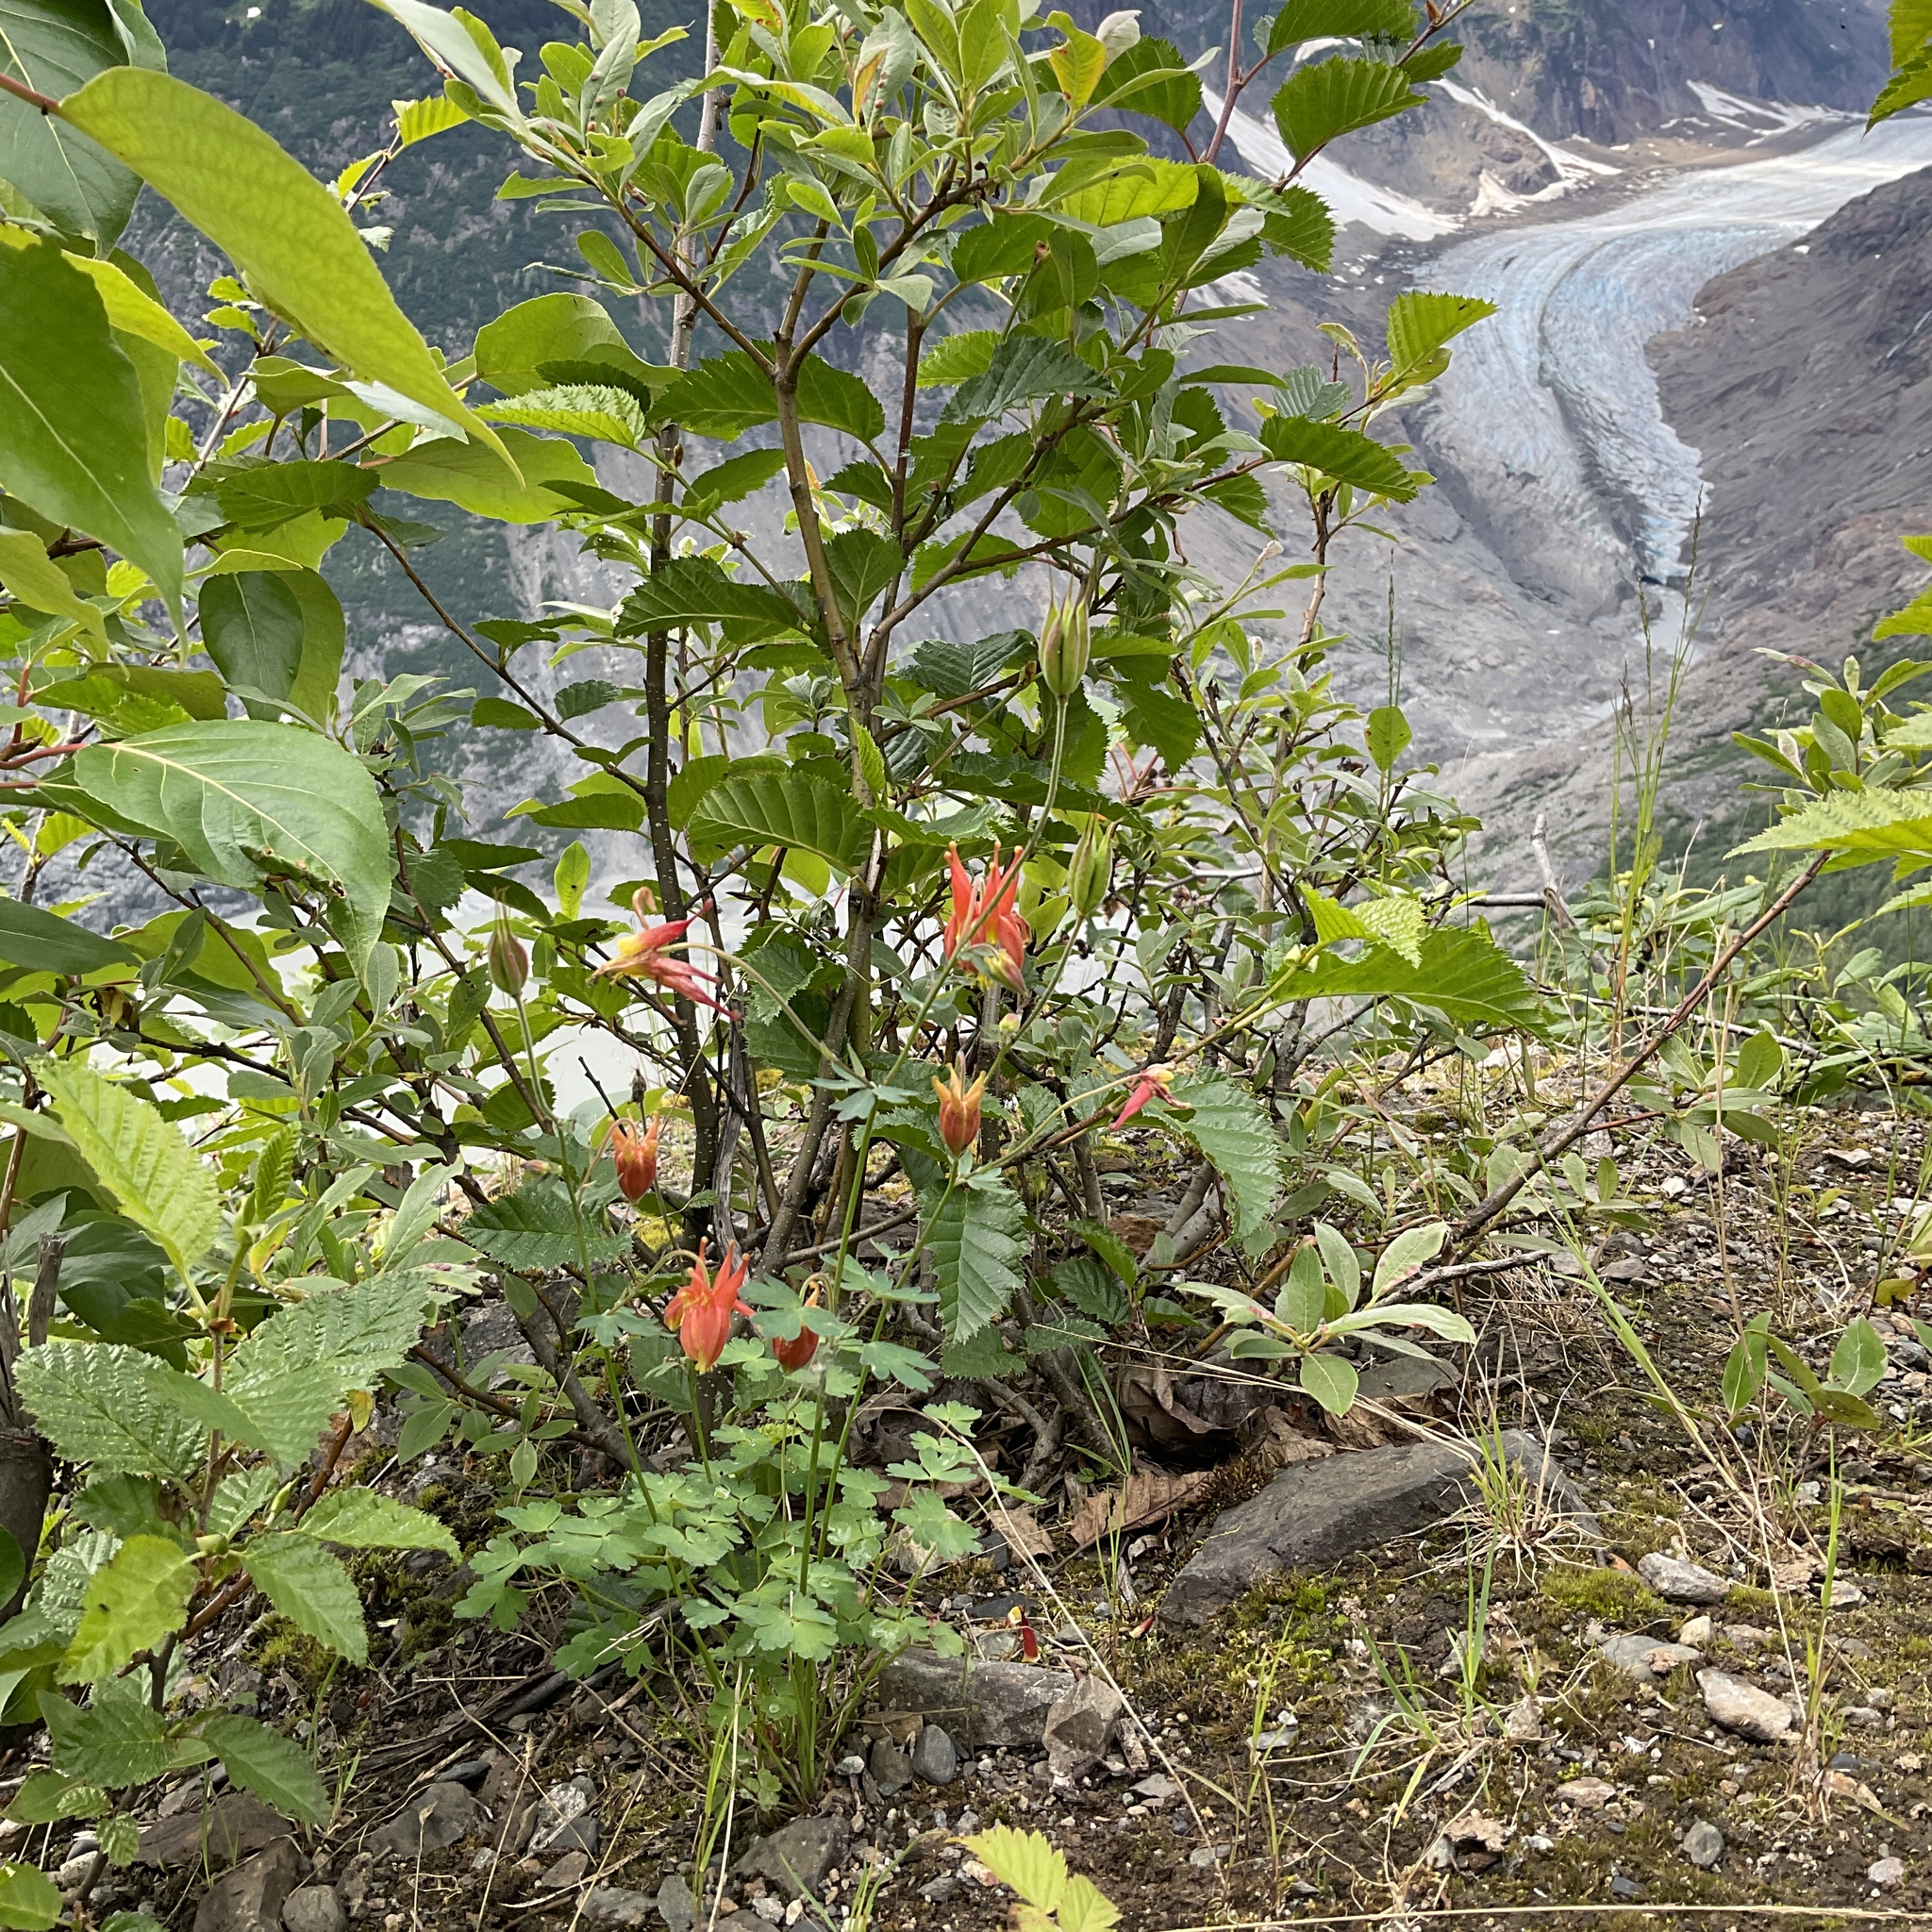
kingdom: Plantae
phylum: Tracheophyta
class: Magnoliopsida
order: Ranunculales
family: Ranunculaceae
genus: Aquilegia
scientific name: Aquilegia formosa
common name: Sitka columbine
